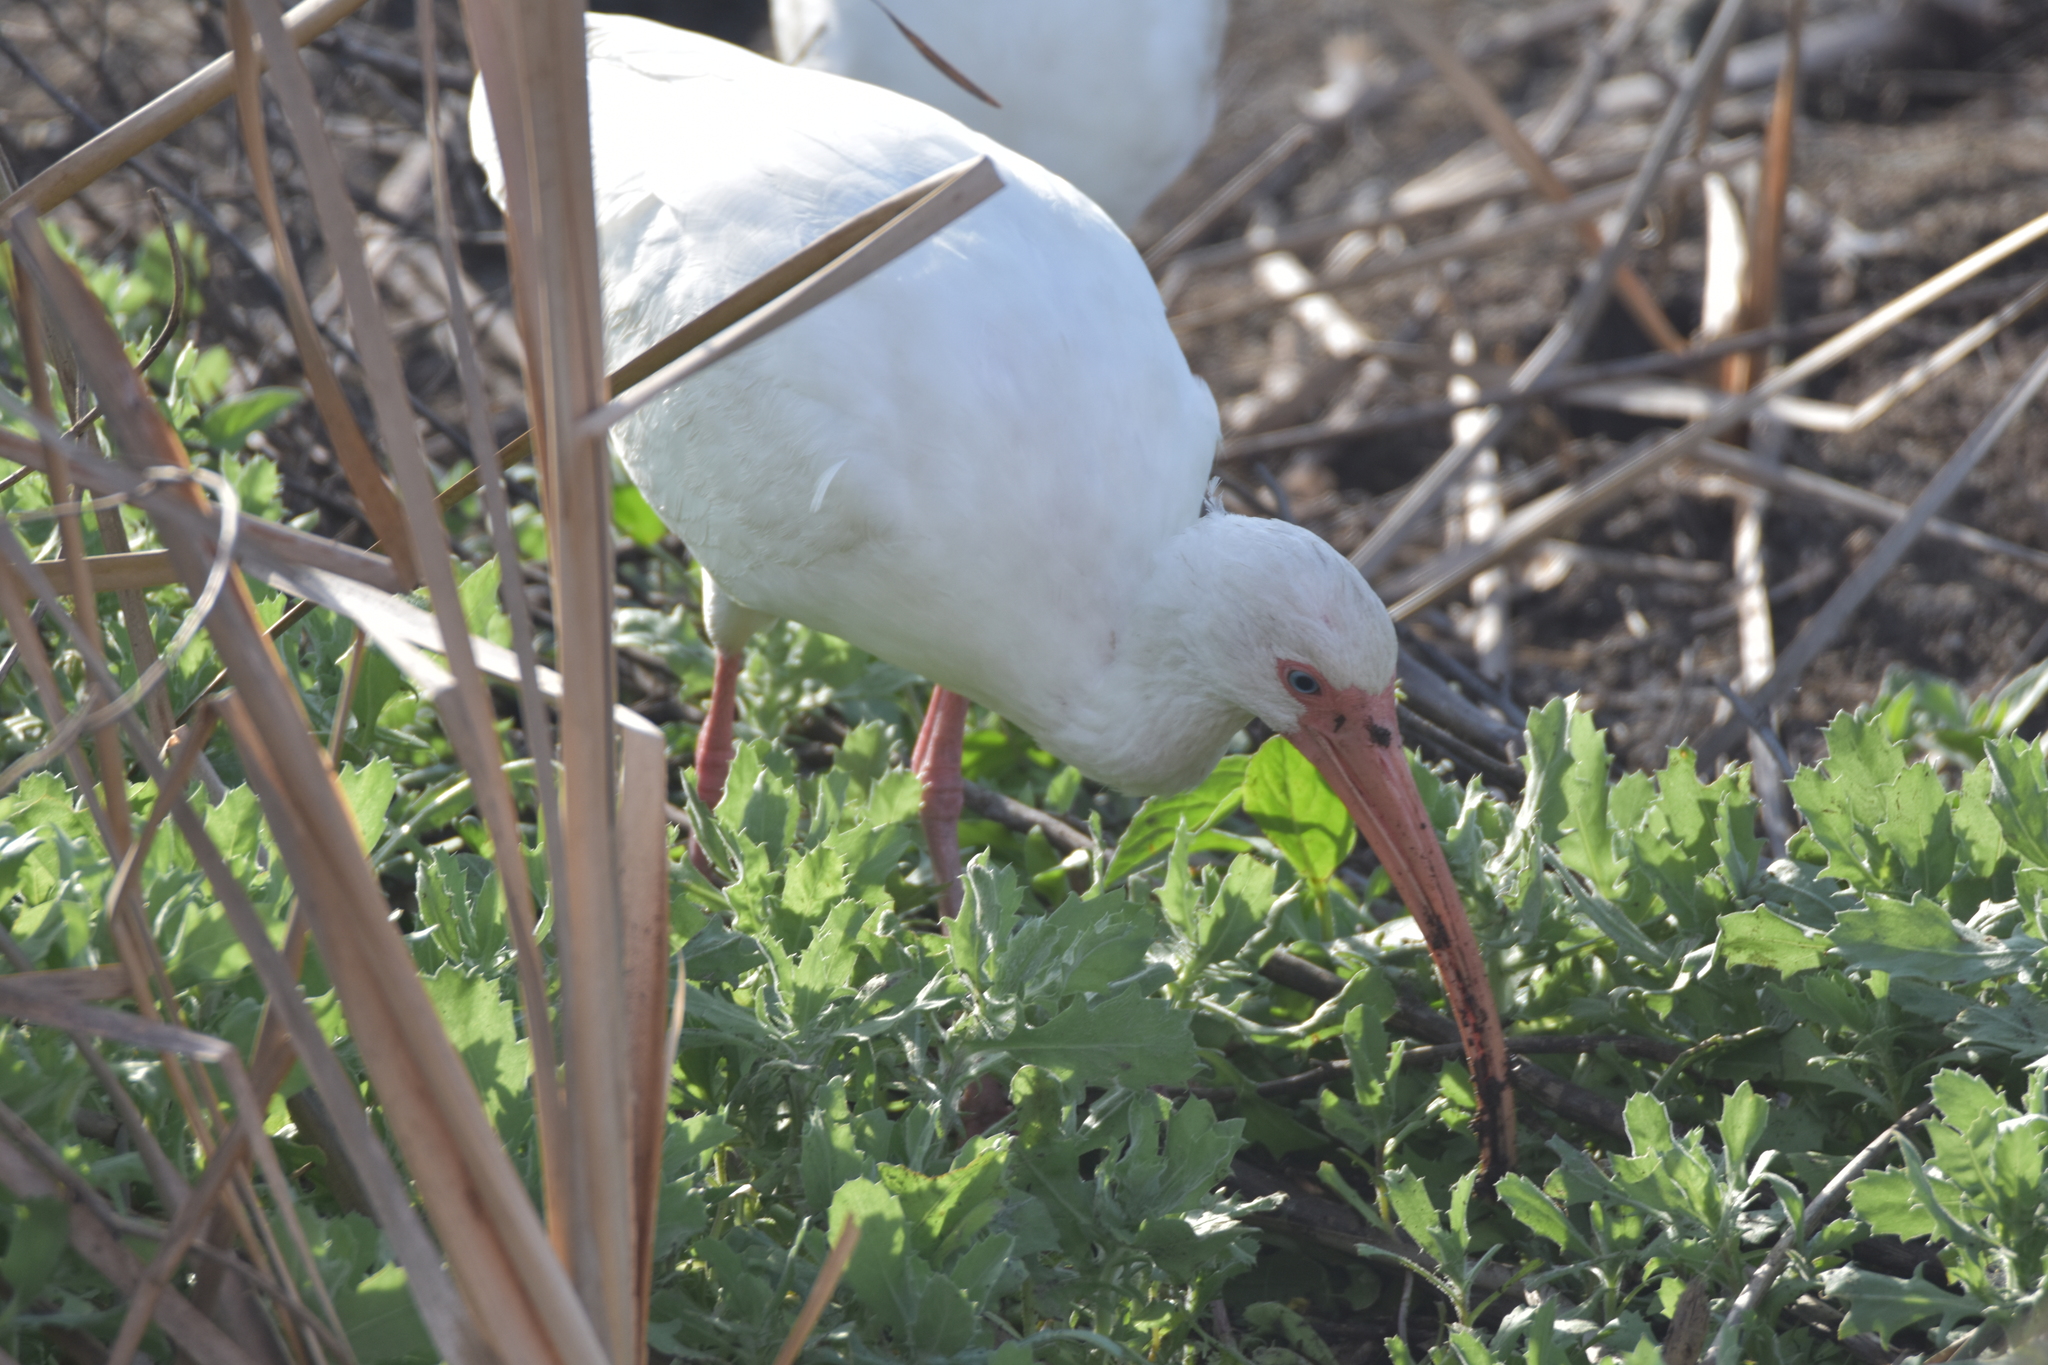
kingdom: Animalia
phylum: Chordata
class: Aves
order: Pelecaniformes
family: Threskiornithidae
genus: Eudocimus
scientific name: Eudocimus albus
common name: White ibis
